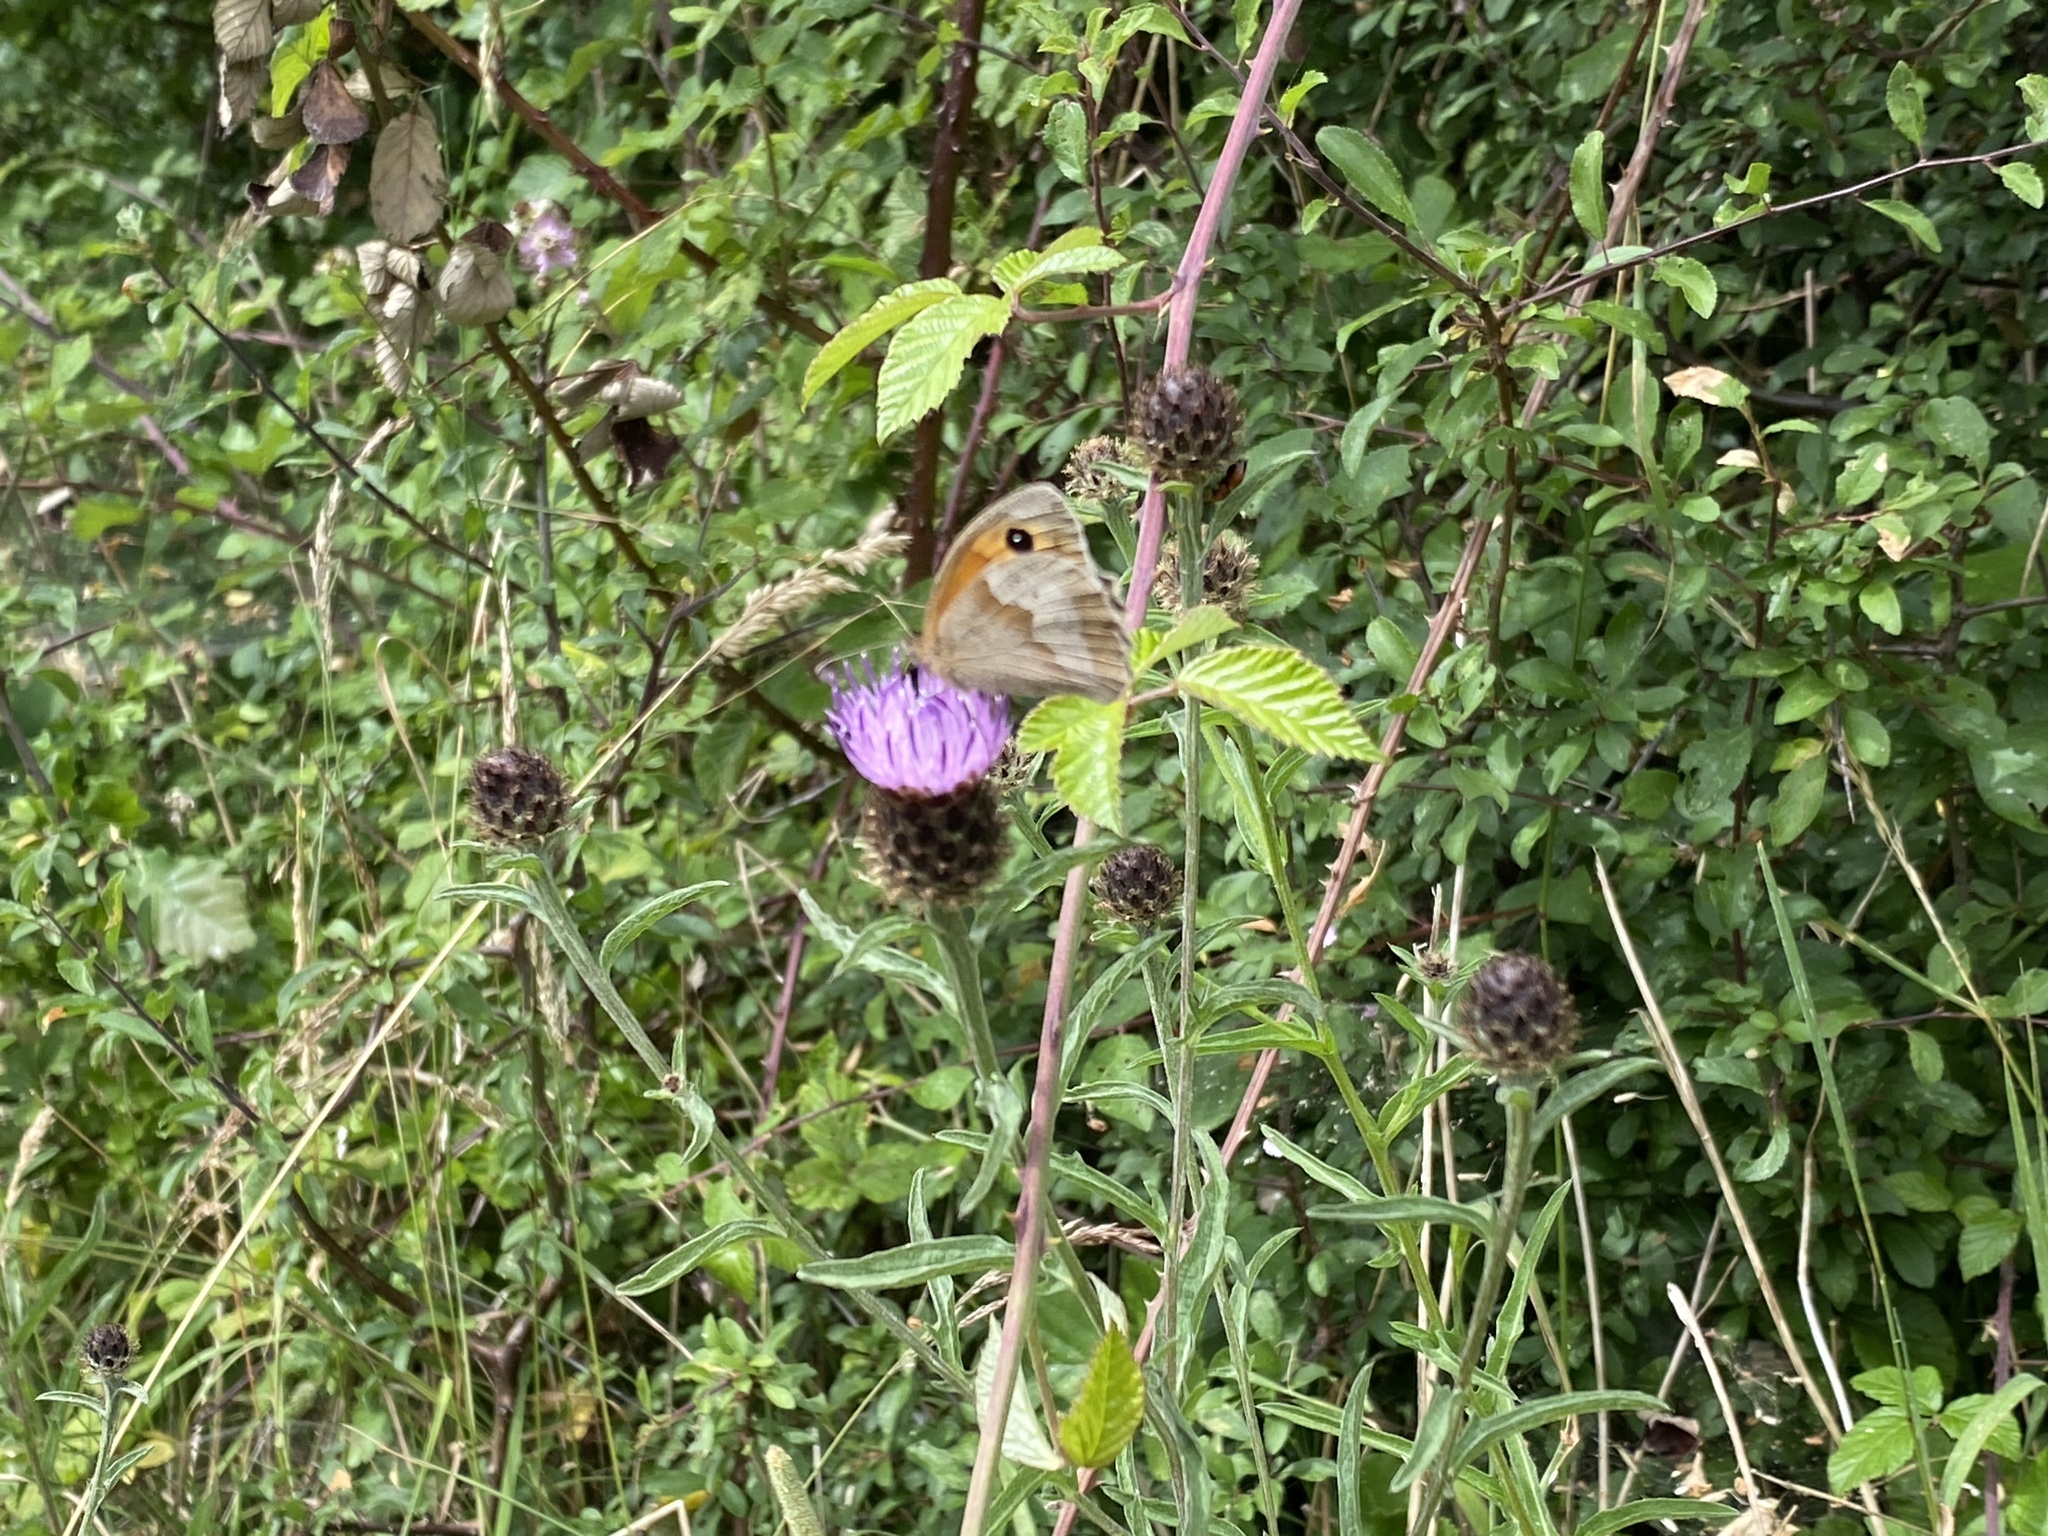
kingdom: Animalia
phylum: Arthropoda
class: Insecta
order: Lepidoptera
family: Nymphalidae
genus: Maniola
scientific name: Maniola jurtina
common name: Meadow brown
